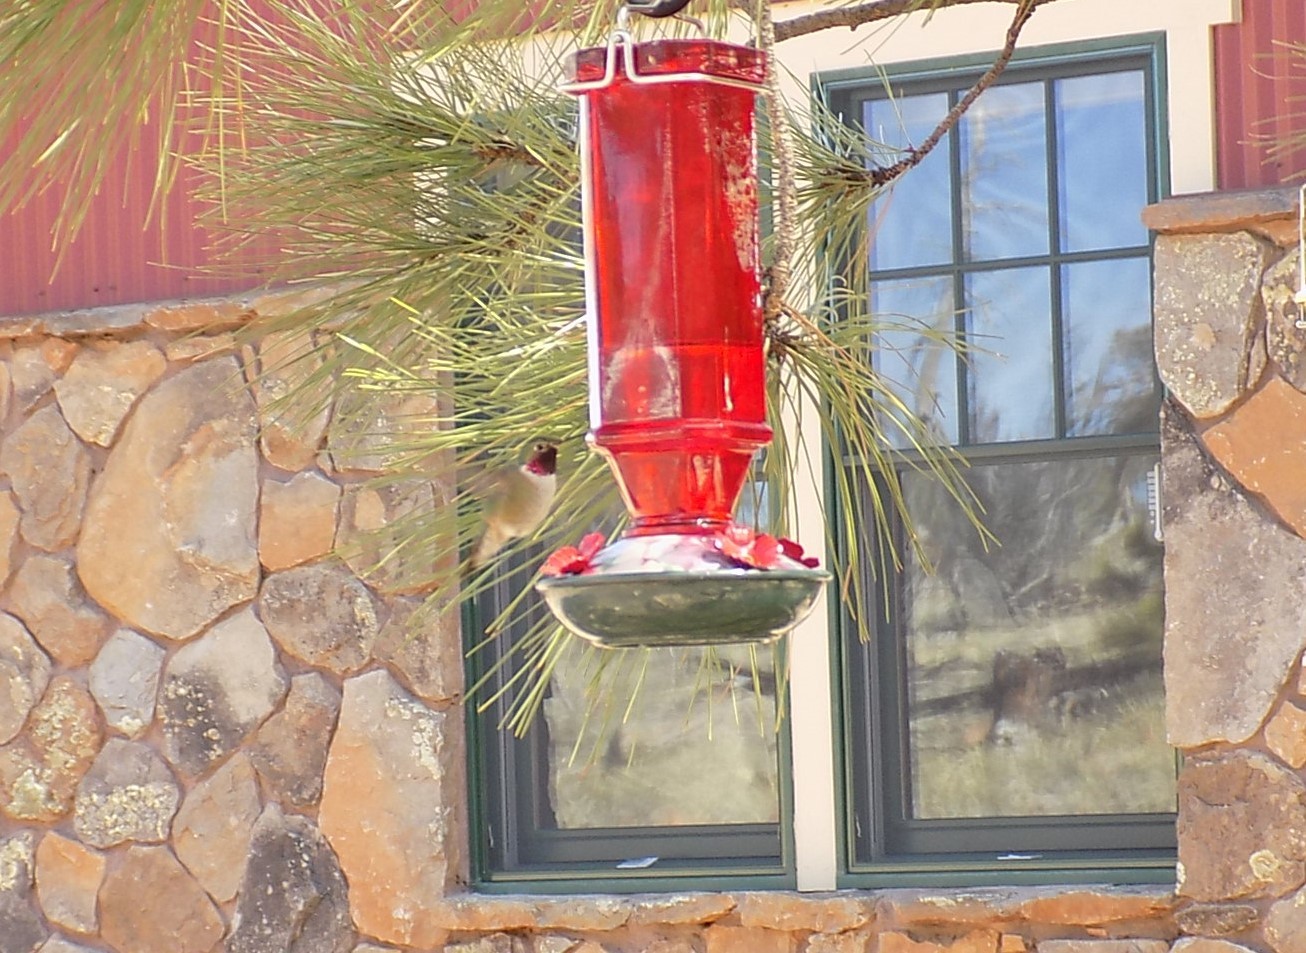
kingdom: Animalia
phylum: Chordata
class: Aves
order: Apodiformes
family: Trochilidae
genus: Selasphorus
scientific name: Selasphorus platycercus
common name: Broad-tailed hummingbird
